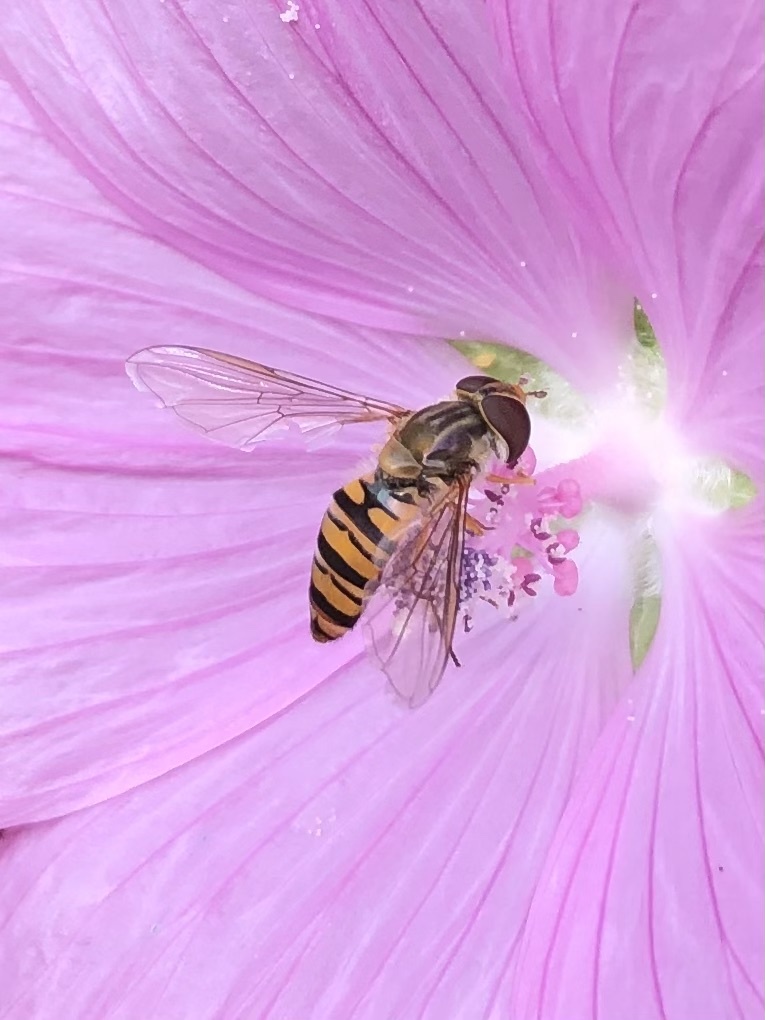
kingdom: Animalia
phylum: Arthropoda
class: Insecta
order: Diptera
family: Syrphidae
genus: Episyrphus
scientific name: Episyrphus balteatus
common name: Marmalade hoverfly
